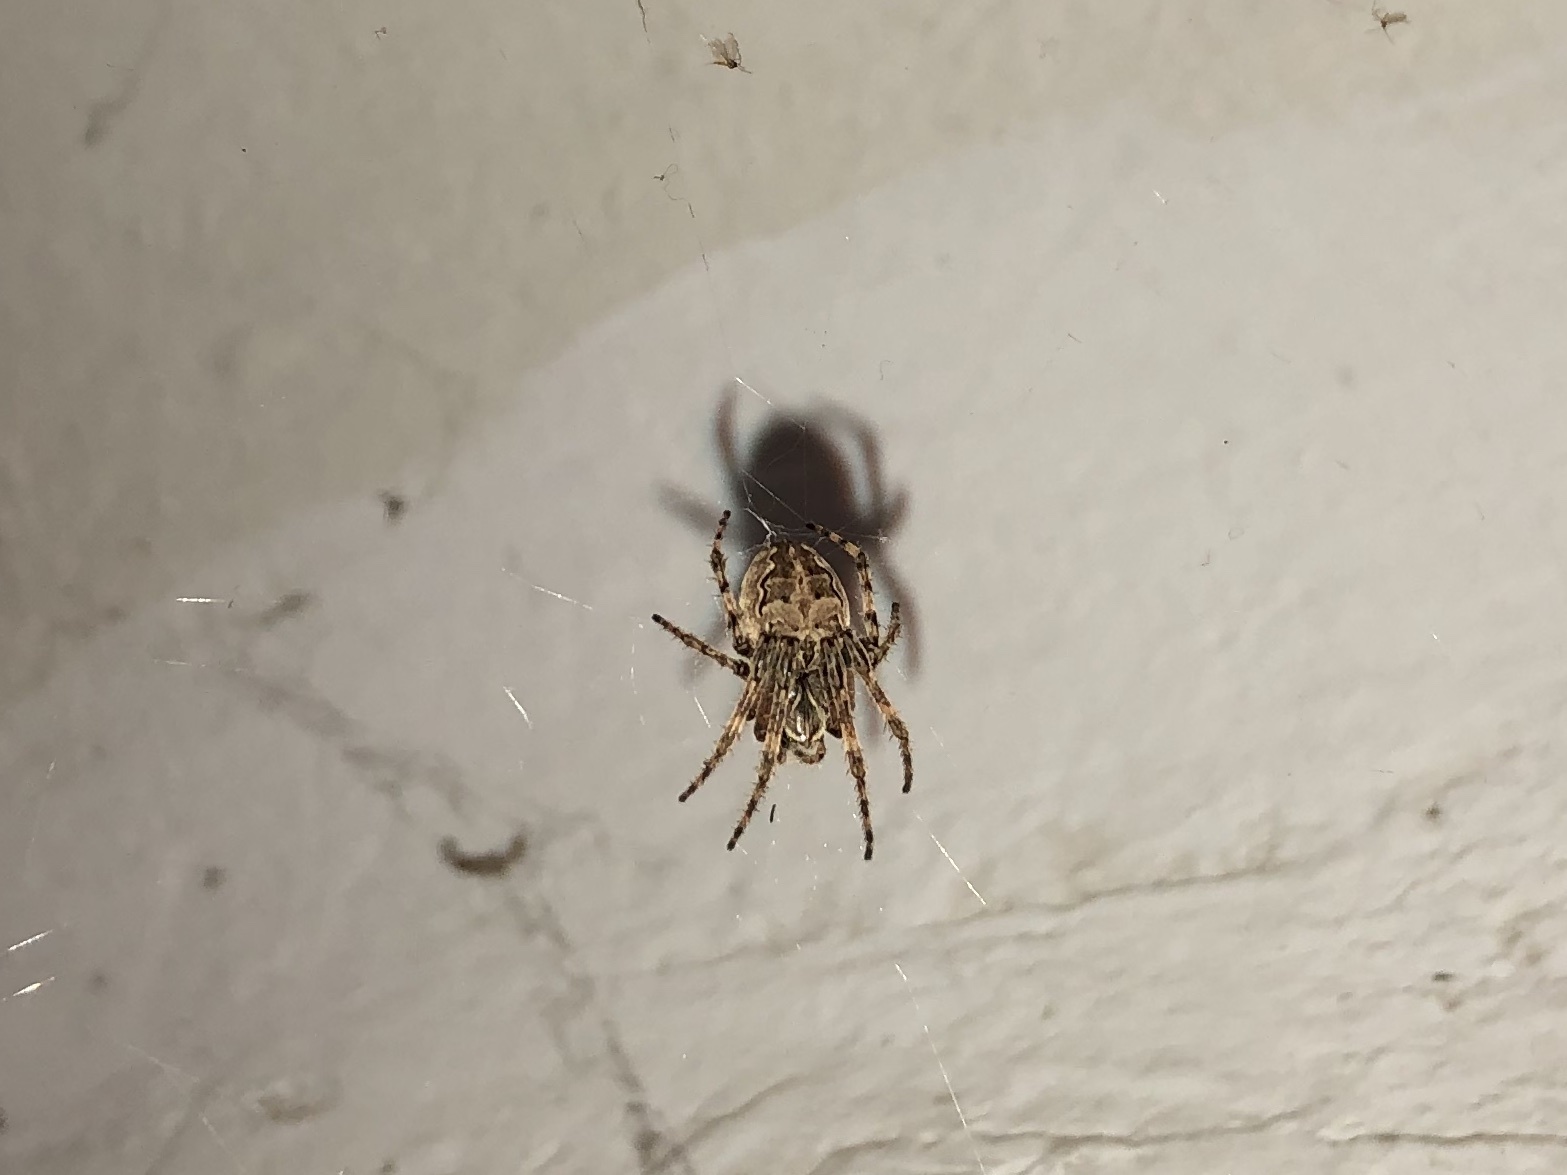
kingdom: Animalia
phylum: Arthropoda
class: Arachnida
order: Araneae
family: Araneidae
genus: Larinioides
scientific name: Larinioides sclopetarius
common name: Bridge orbweaver
